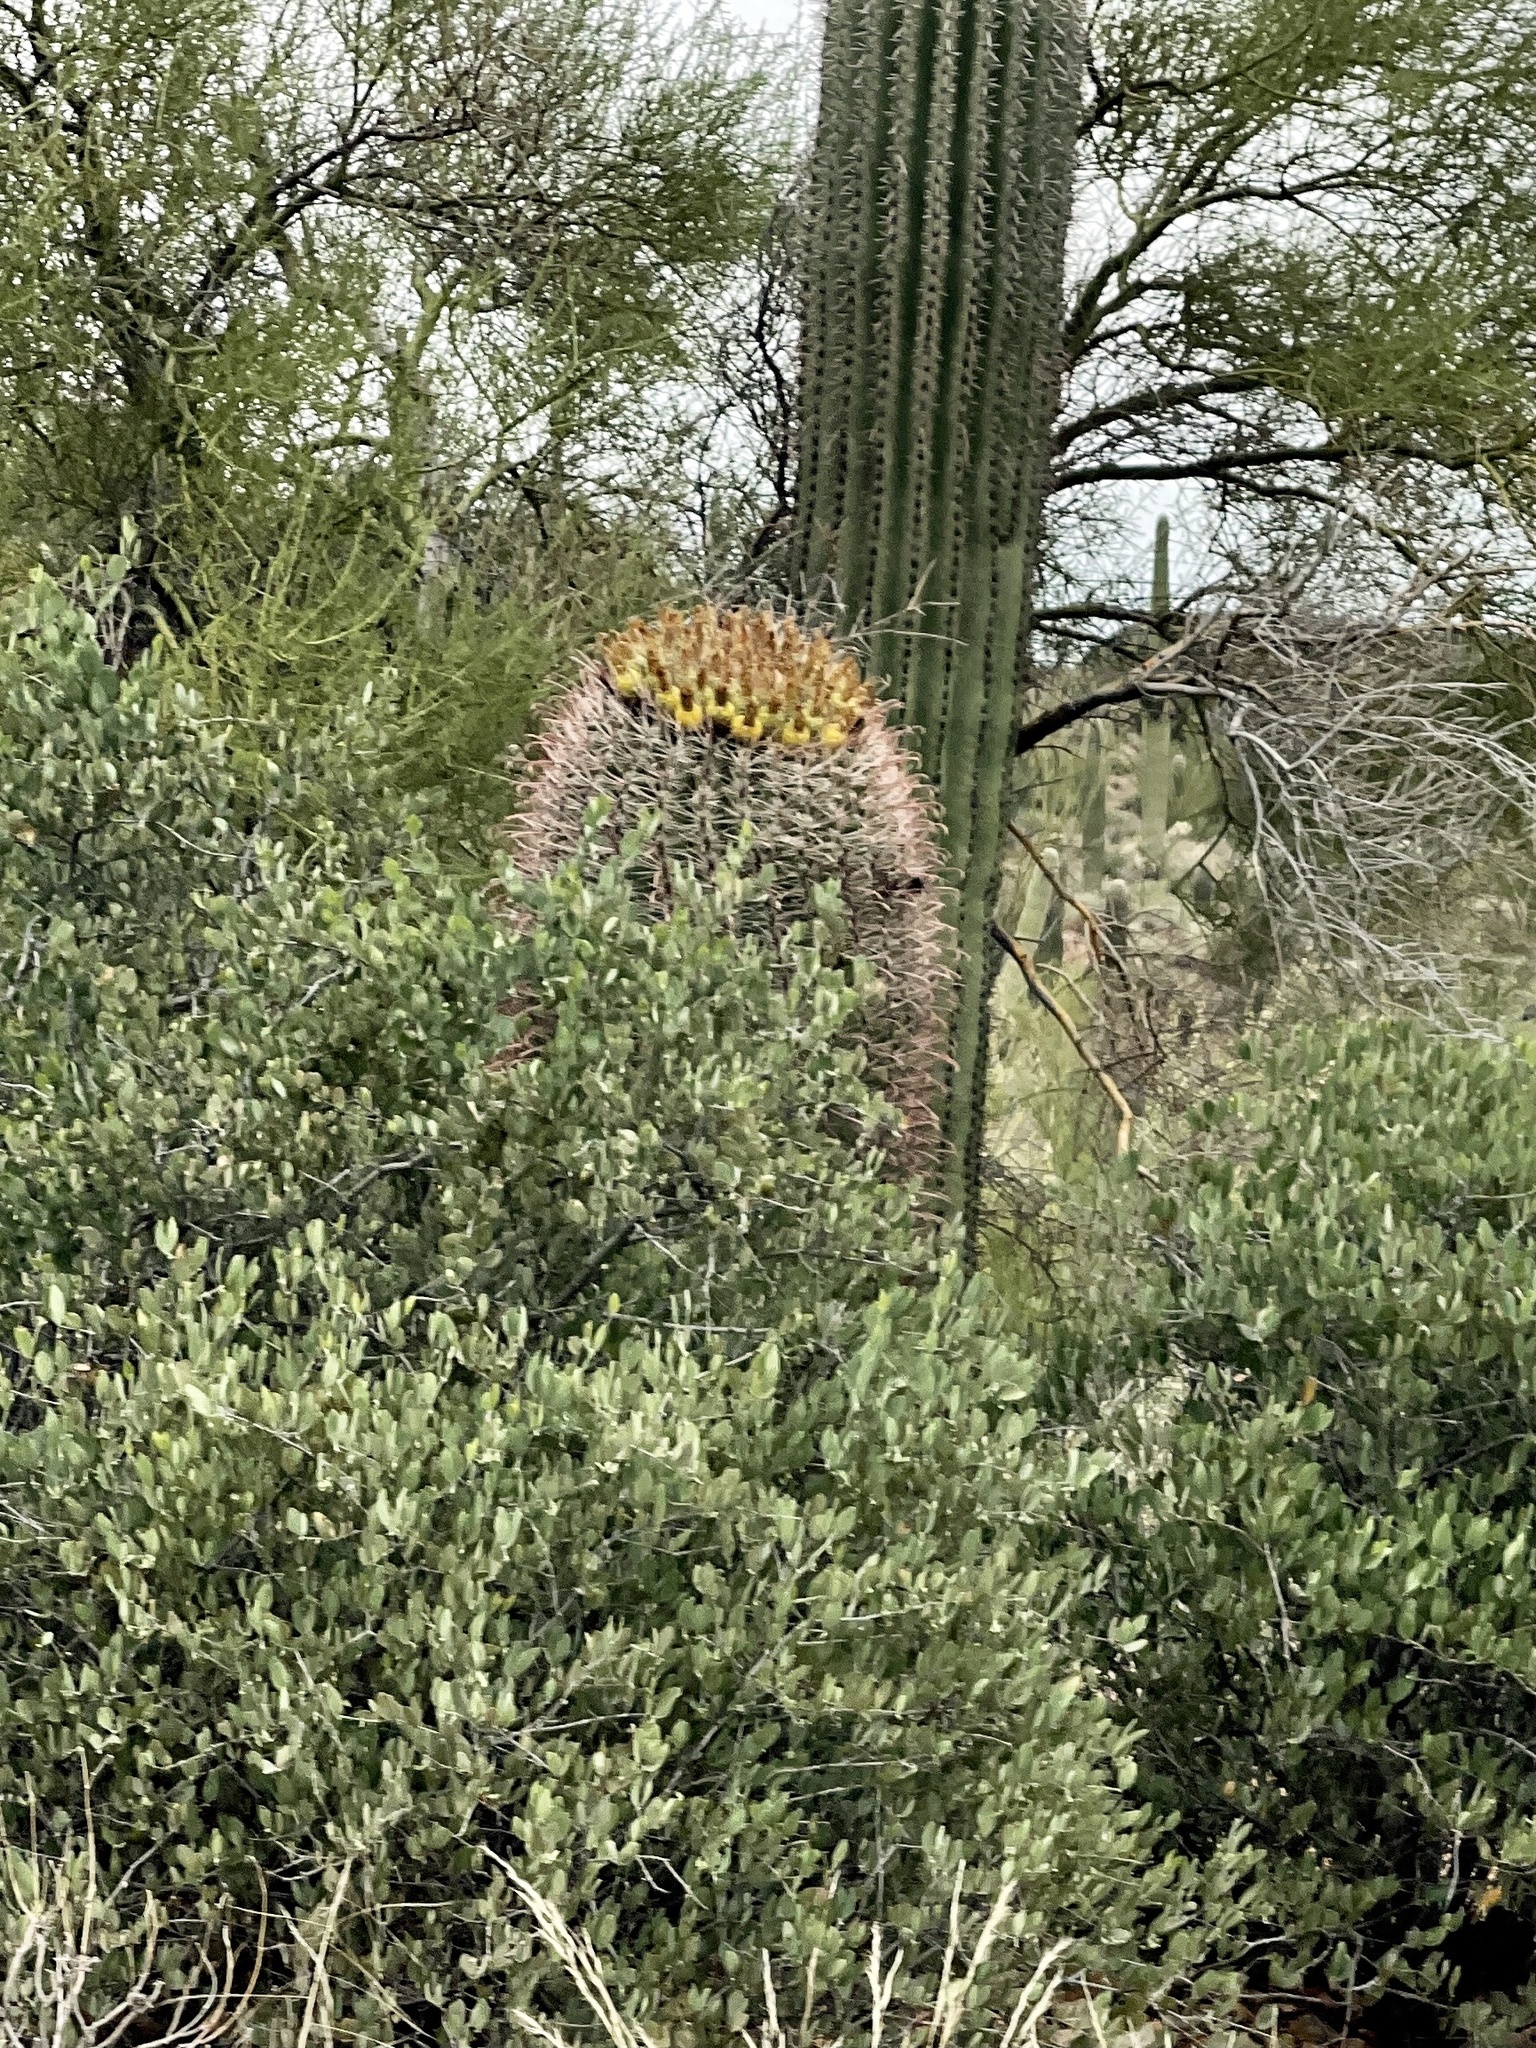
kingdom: Plantae
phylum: Tracheophyta
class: Magnoliopsida
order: Caryophyllales
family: Cactaceae
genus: Ferocactus
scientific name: Ferocactus wislizeni
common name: Candy barrel cactus
